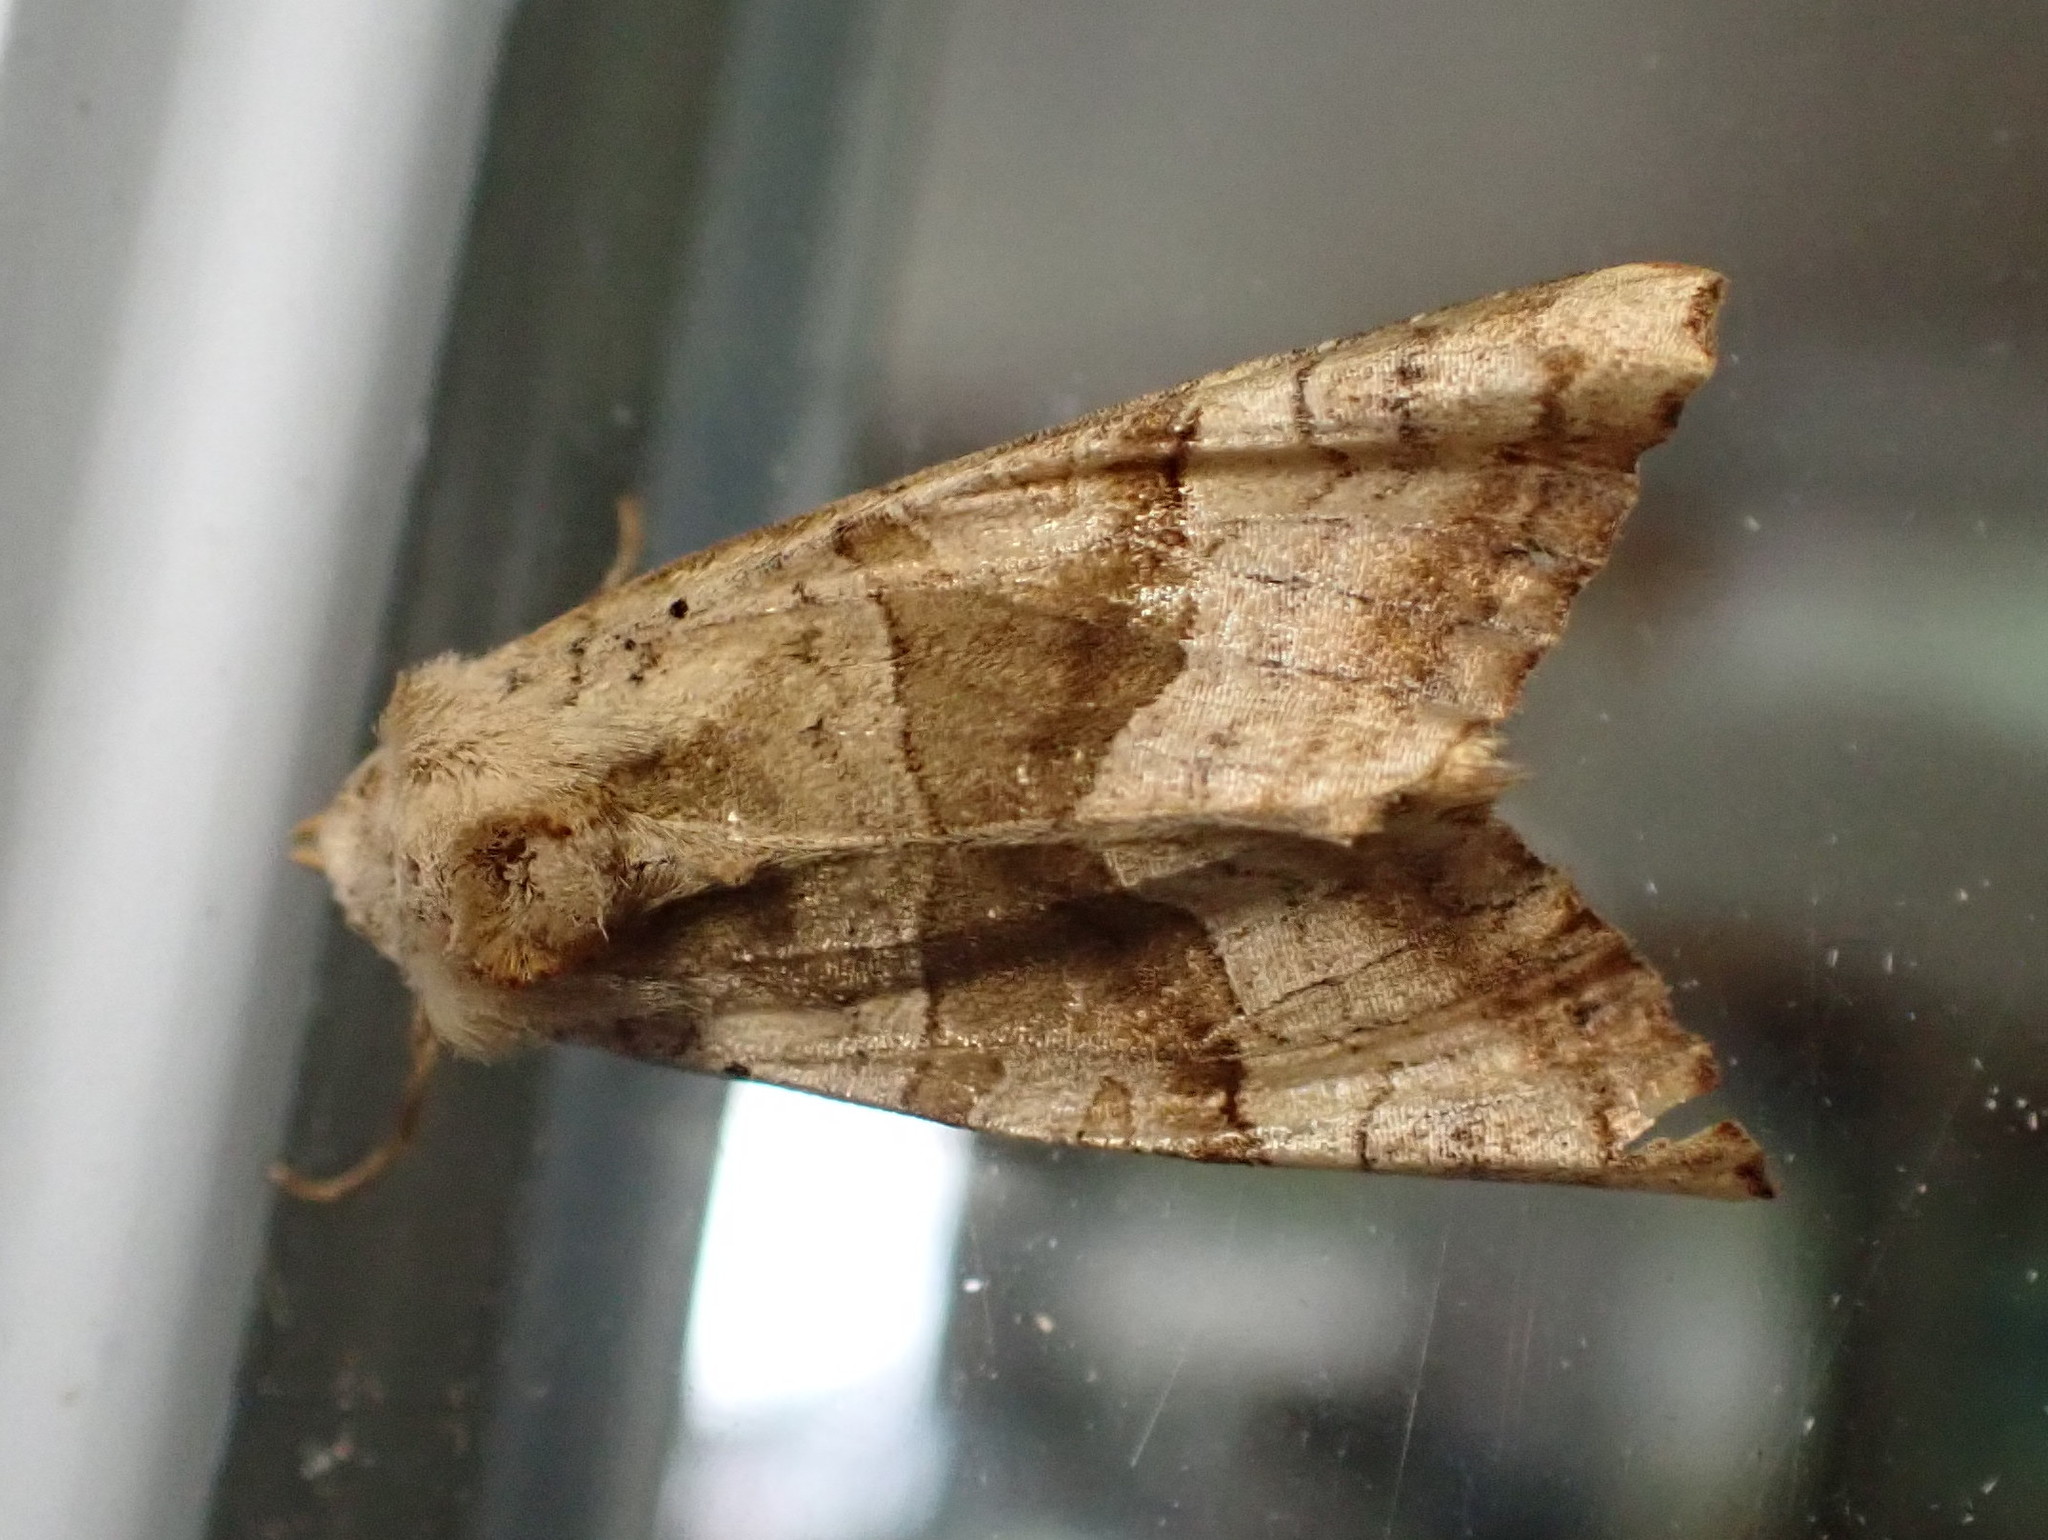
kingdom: Animalia
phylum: Arthropoda
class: Insecta
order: Lepidoptera
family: Noctuidae
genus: Phlogophora
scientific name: Phlogophora periculosa
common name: Brown angle shades
